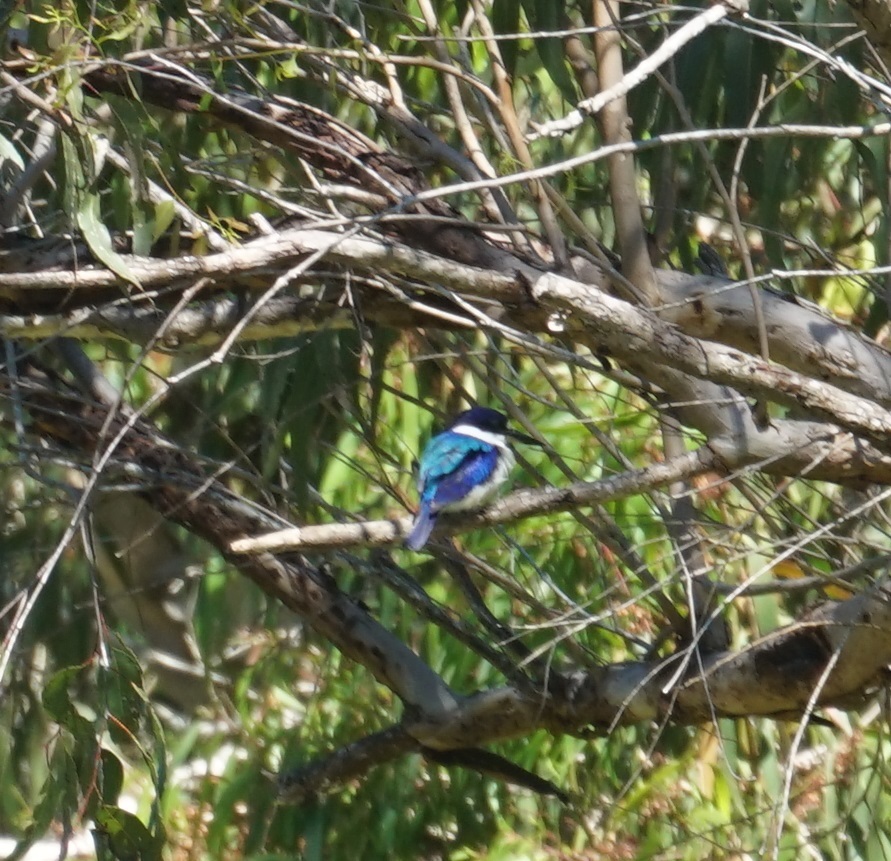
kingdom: Animalia
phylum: Chordata
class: Aves
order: Coraciiformes
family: Alcedinidae
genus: Todiramphus
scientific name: Todiramphus macleayii
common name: Forest kingfisher
